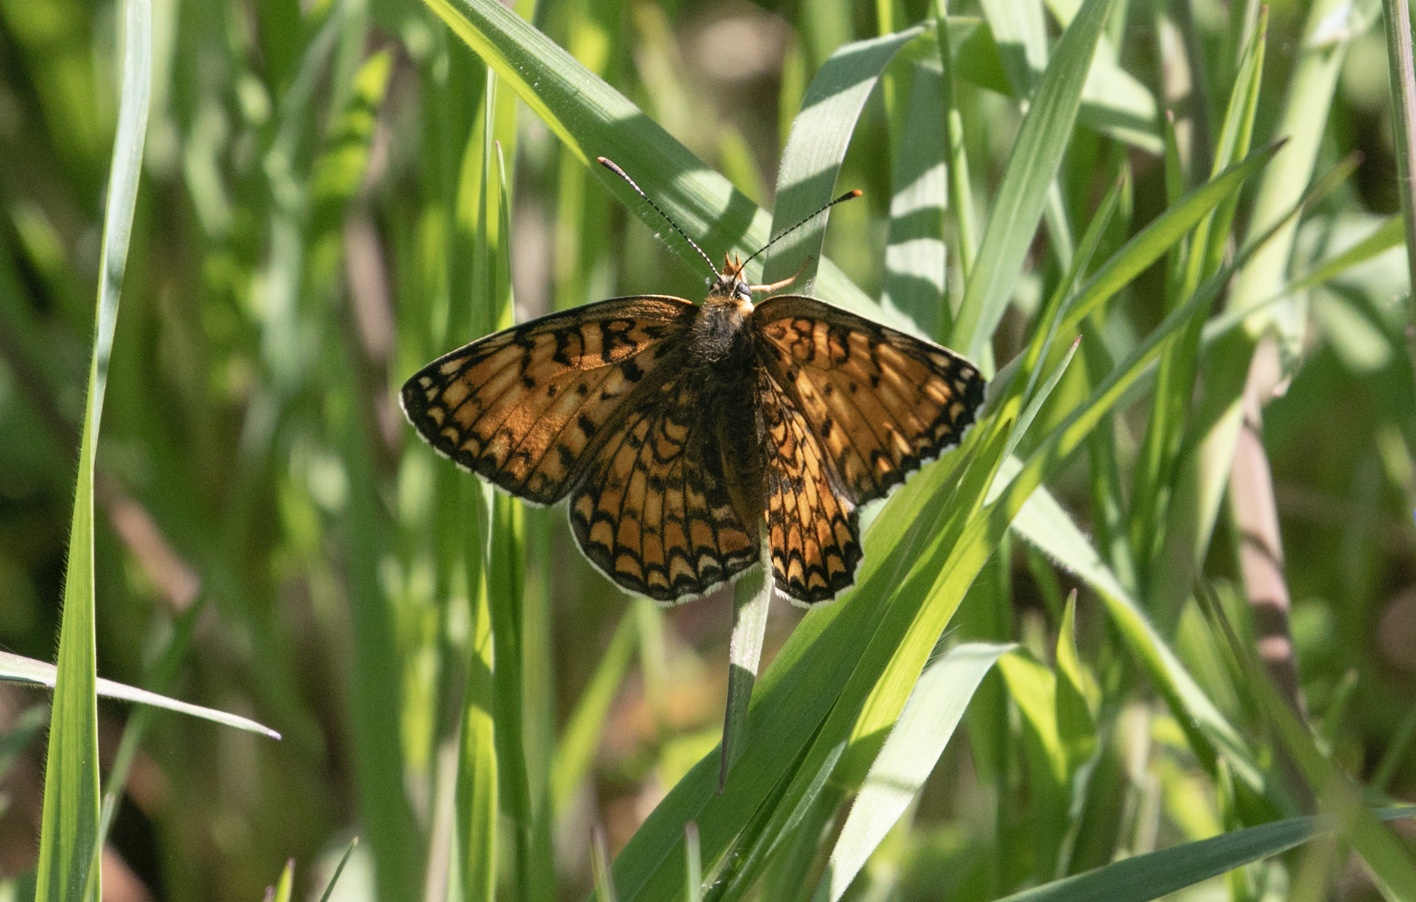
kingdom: Animalia
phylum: Arthropoda
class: Insecta
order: Lepidoptera
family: Nymphalidae
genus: Melitaea
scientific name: Melitaea phoebe
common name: Knapweed fritillary
